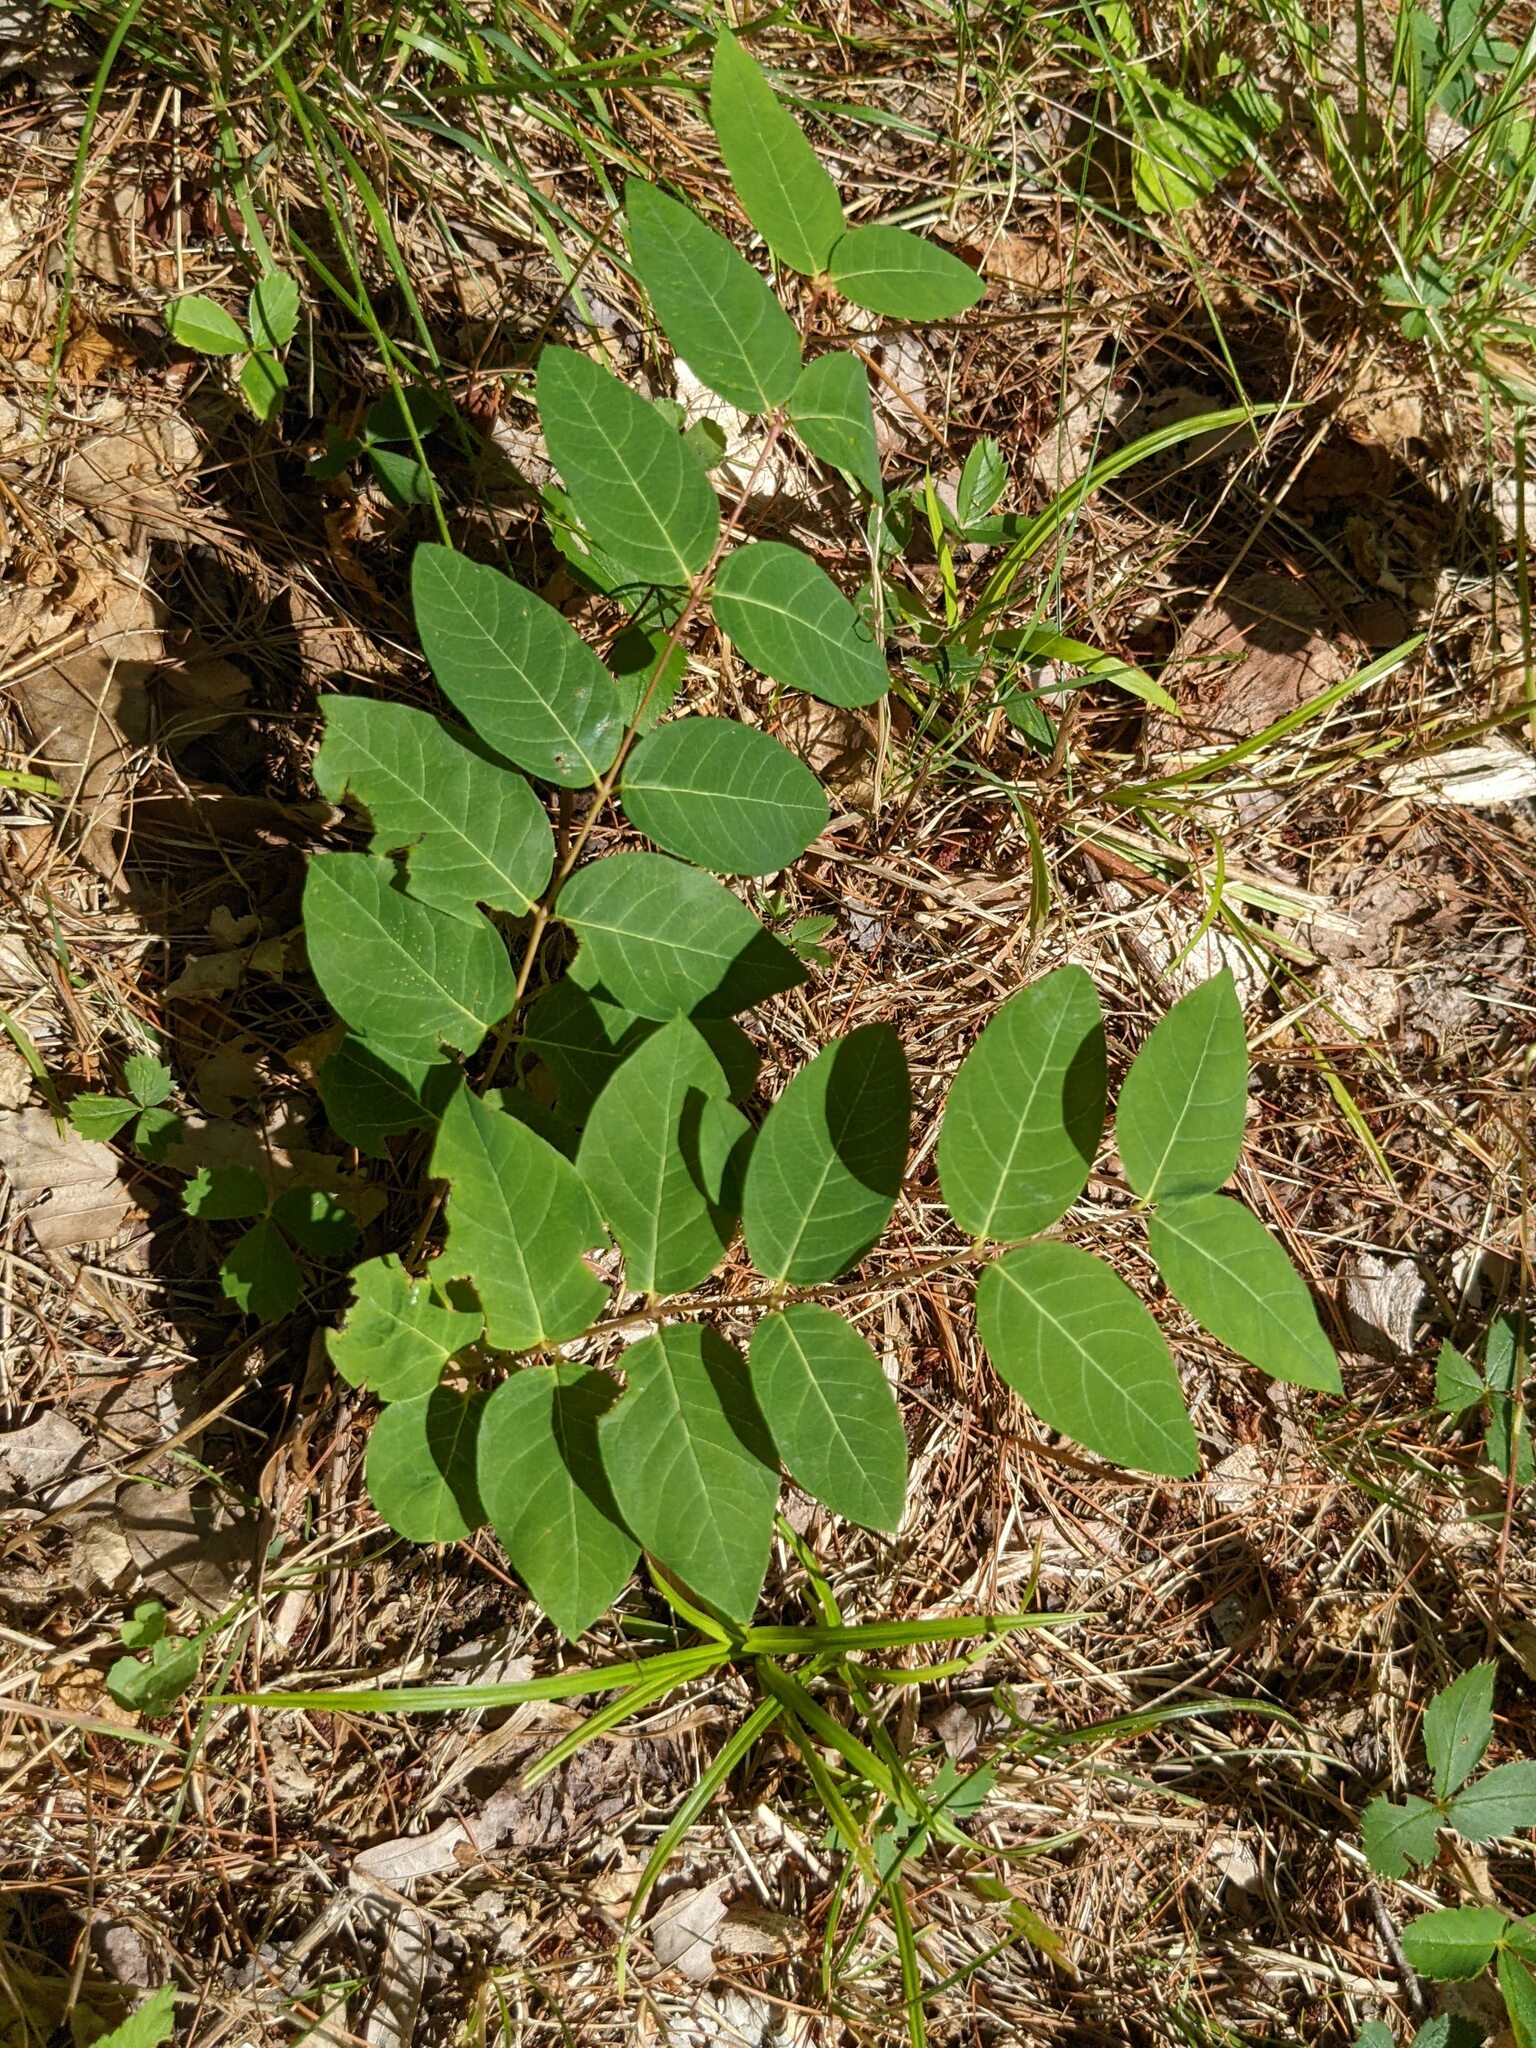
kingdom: Plantae
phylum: Tracheophyta
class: Magnoliopsida
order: Gentianales
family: Apocynaceae
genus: Apocynum
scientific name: Apocynum androsaemifolium
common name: Spreading dogbane
